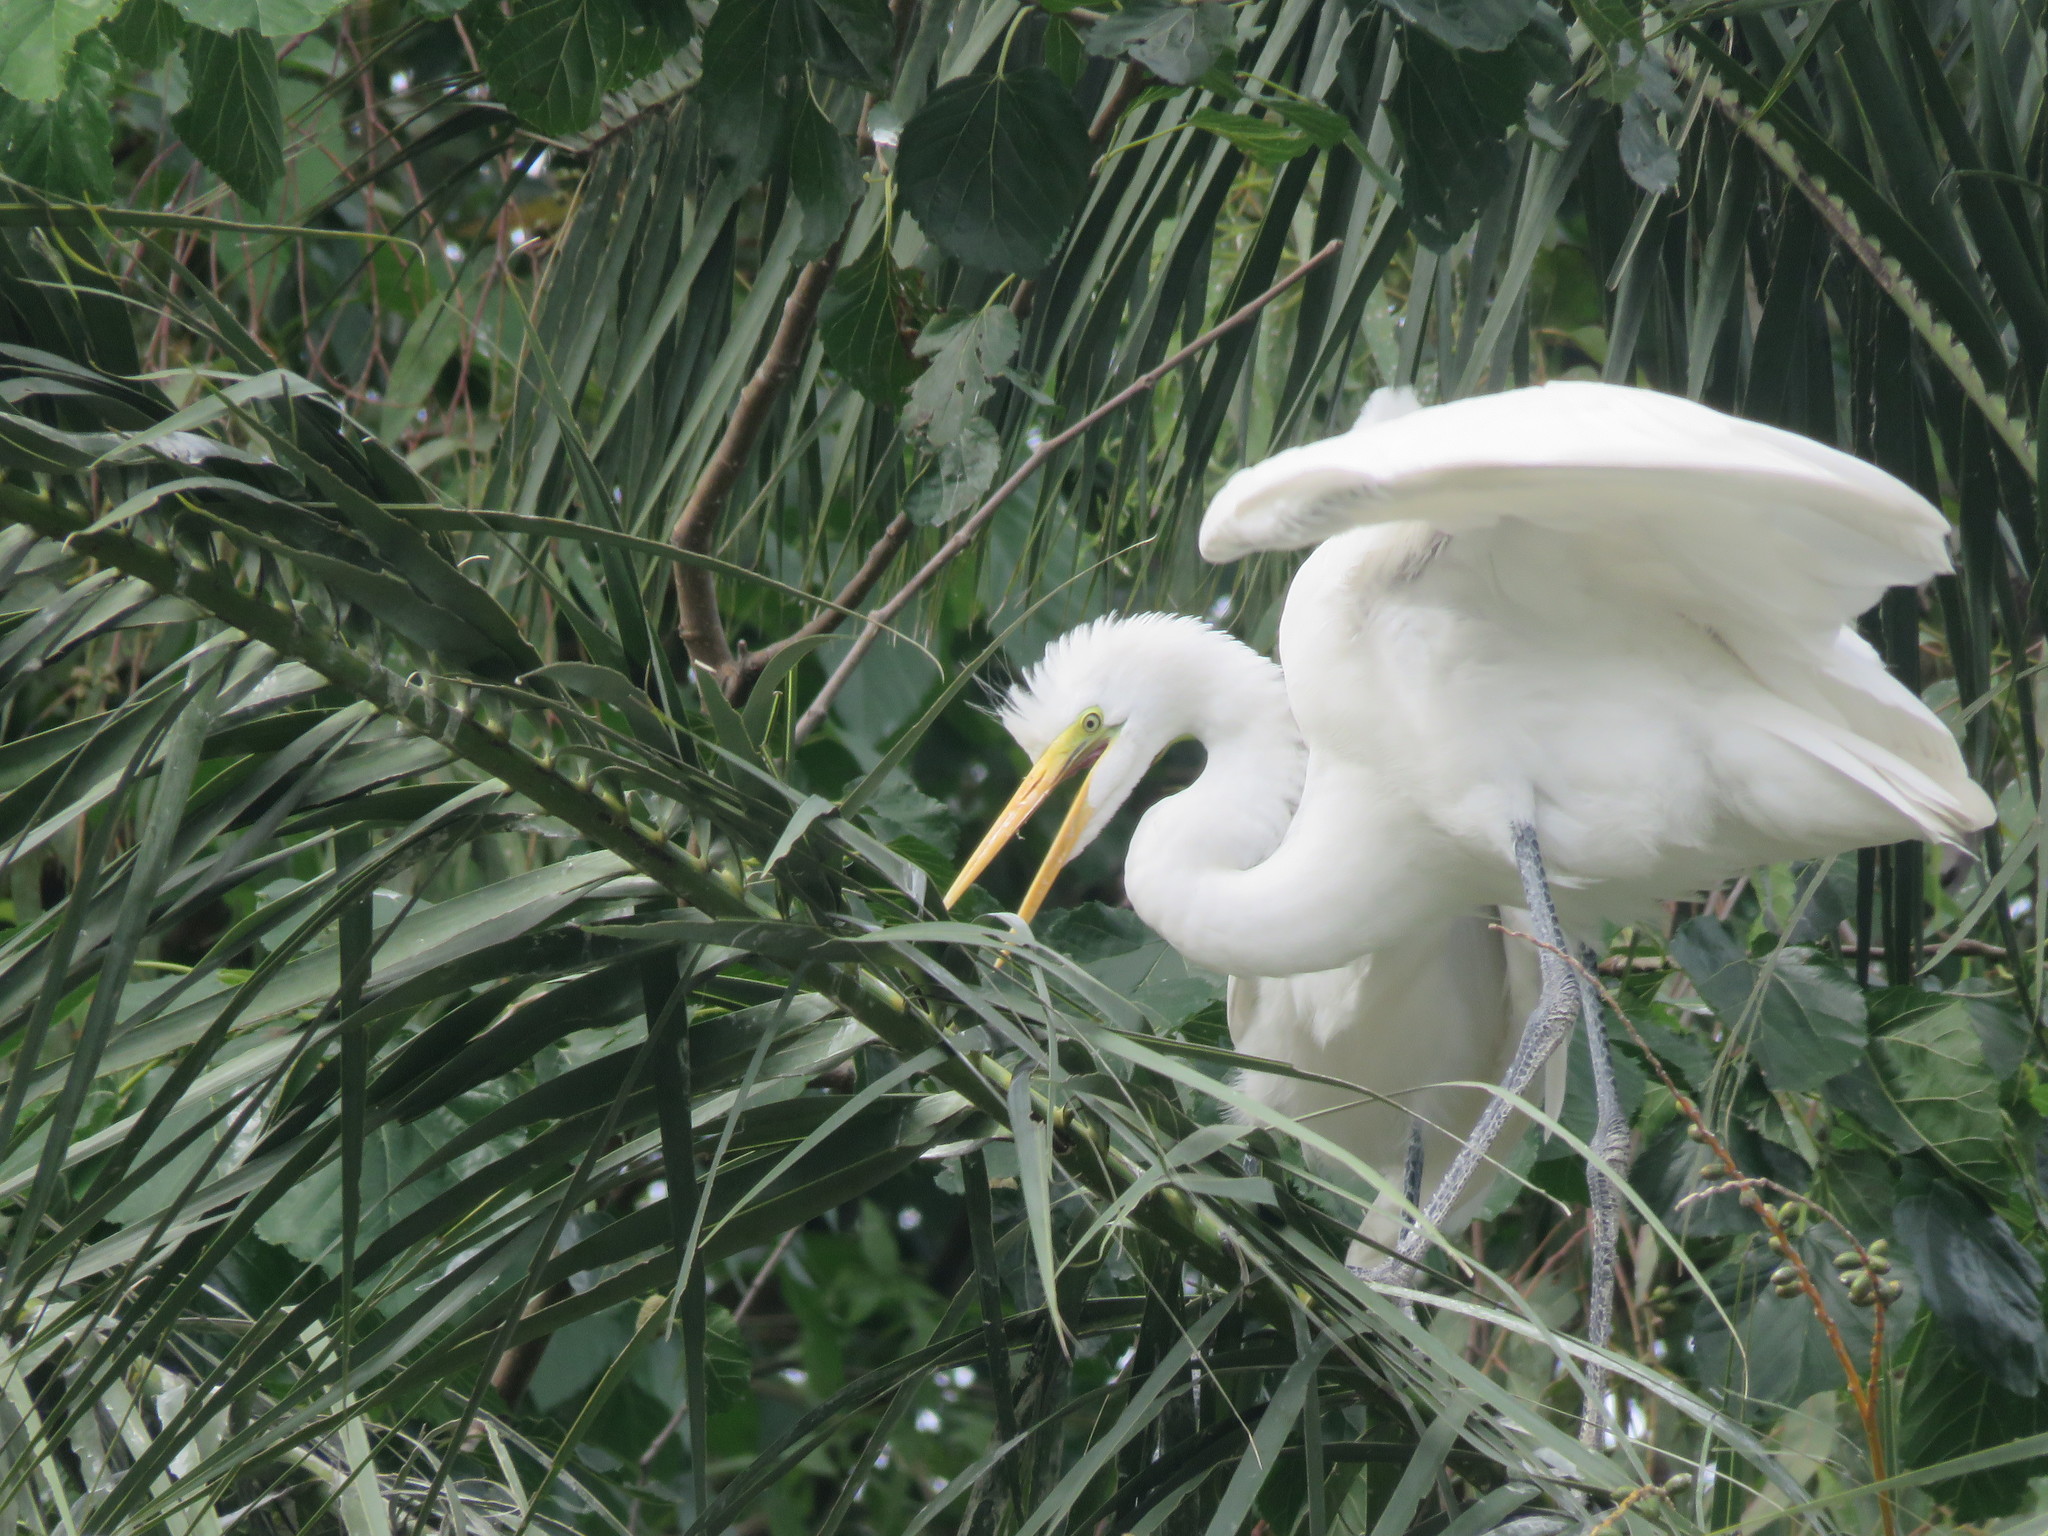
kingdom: Animalia
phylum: Chordata
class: Aves
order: Pelecaniformes
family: Ardeidae
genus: Ardea
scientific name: Ardea alba
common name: Great egret
